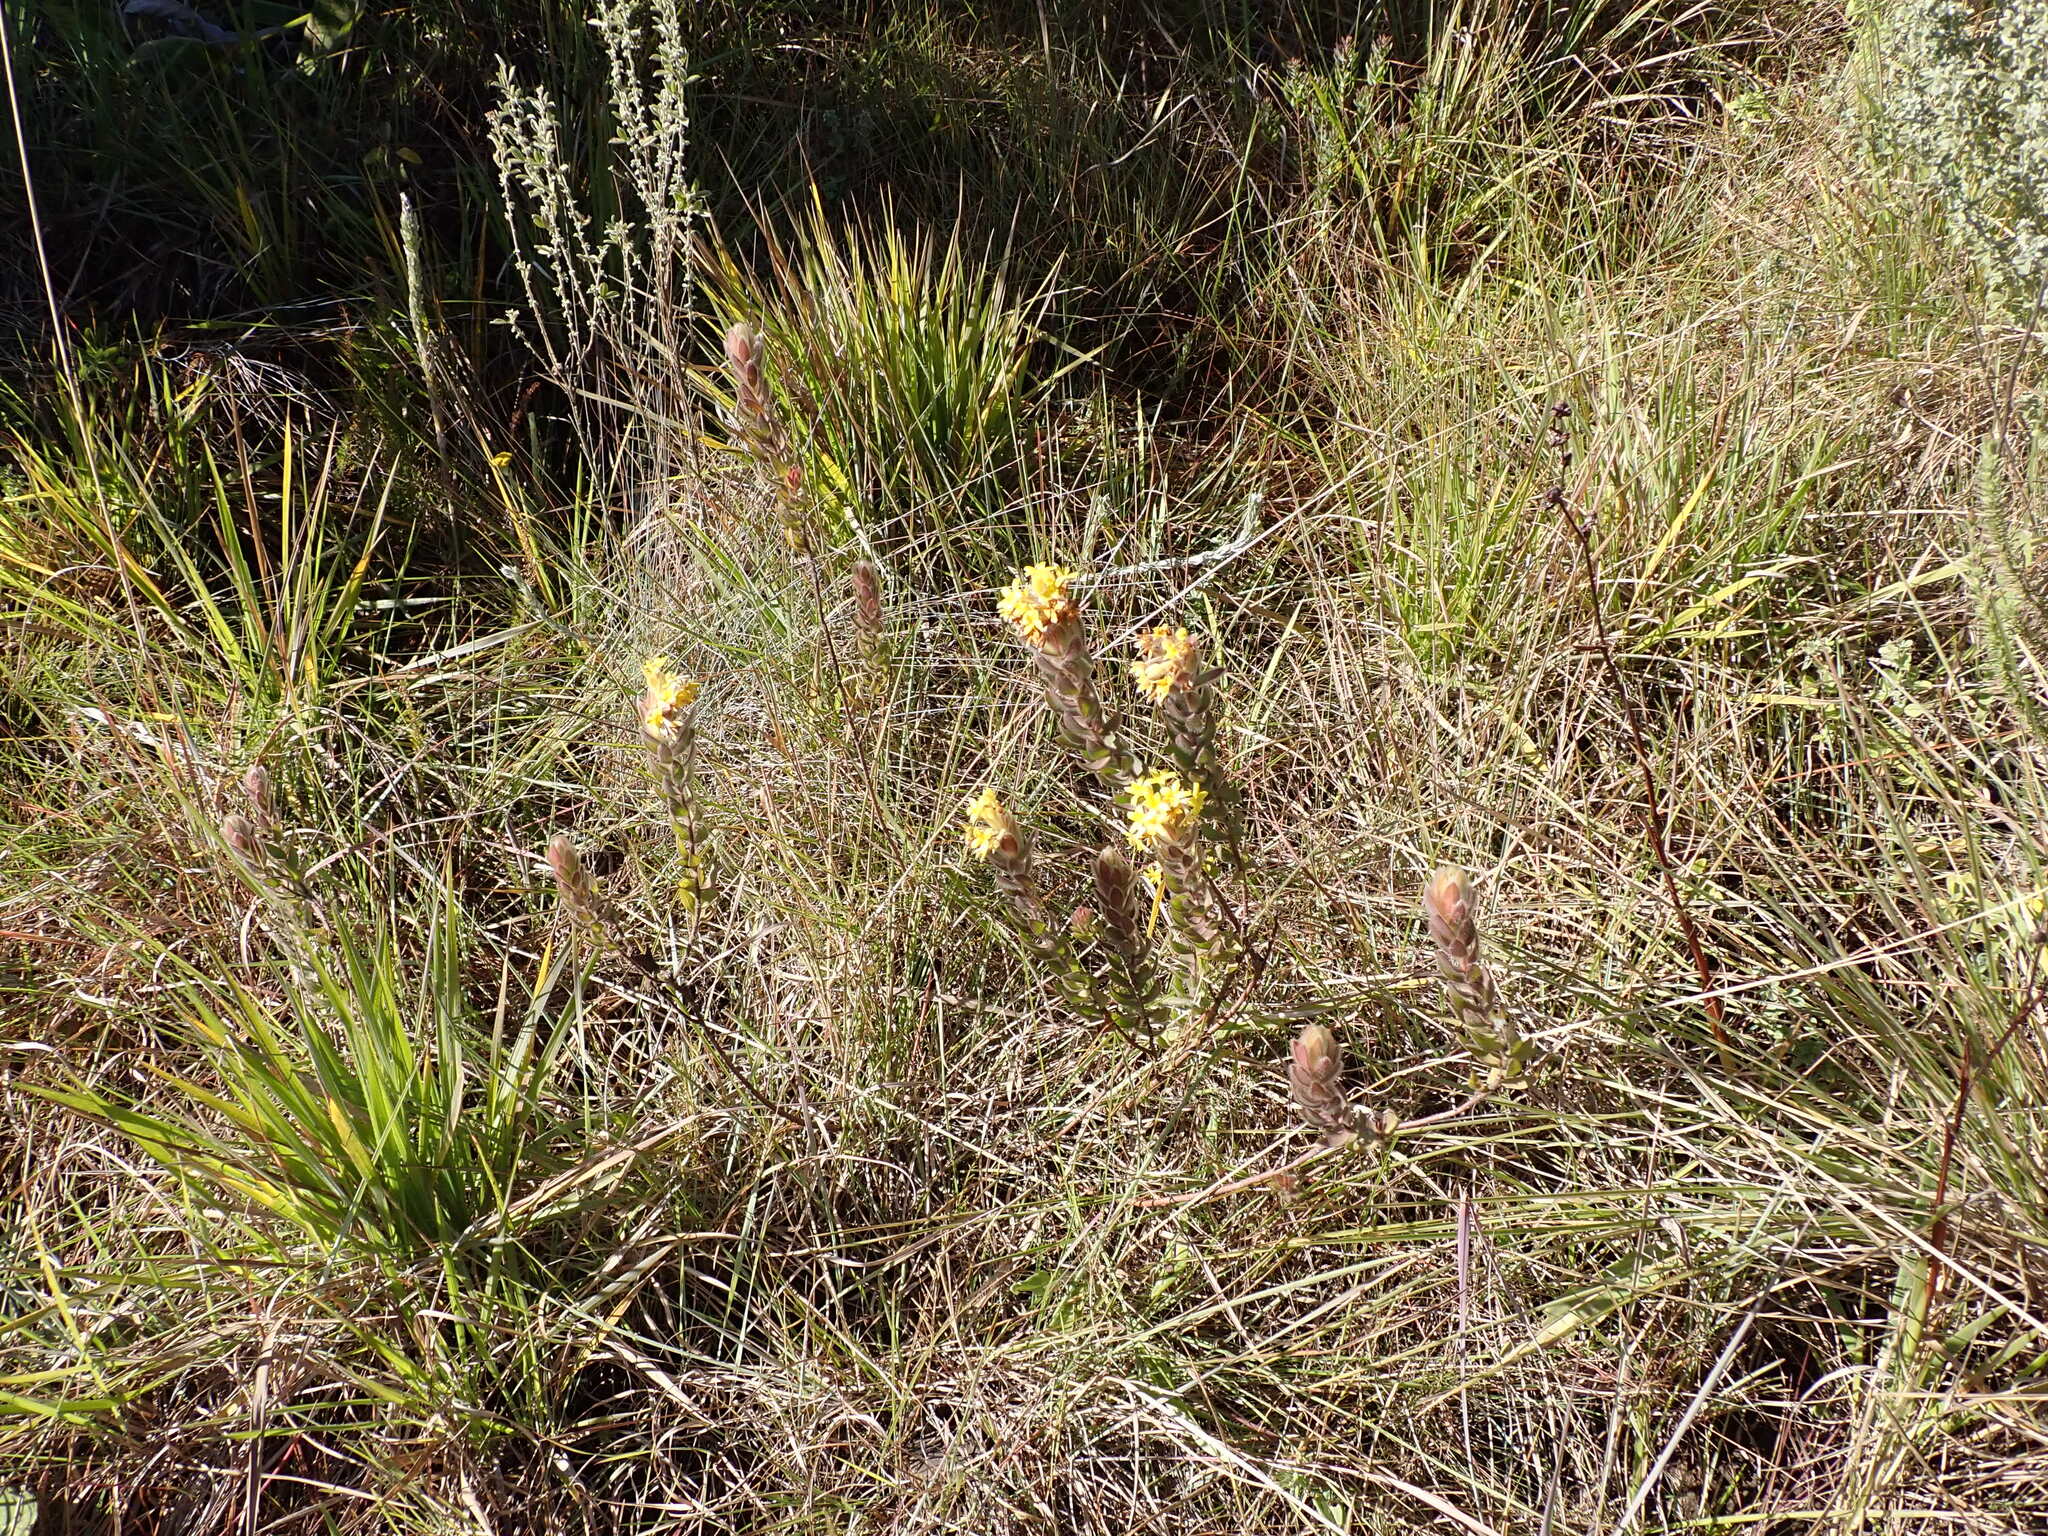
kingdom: Plantae
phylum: Tracheophyta
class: Magnoliopsida
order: Malvales
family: Thymelaeaceae
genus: Lasiosiphon
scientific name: Lasiosiphon polyanthus
